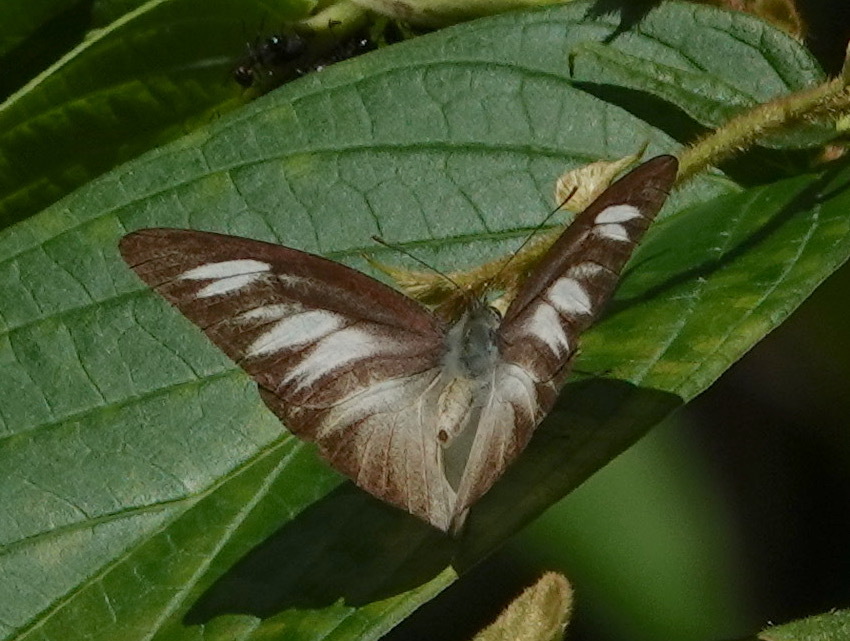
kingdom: Animalia
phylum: Arthropoda
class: Insecta
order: Lepidoptera
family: Pieridae
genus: Appias
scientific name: Appias lyncida
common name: Chocolate albatross
